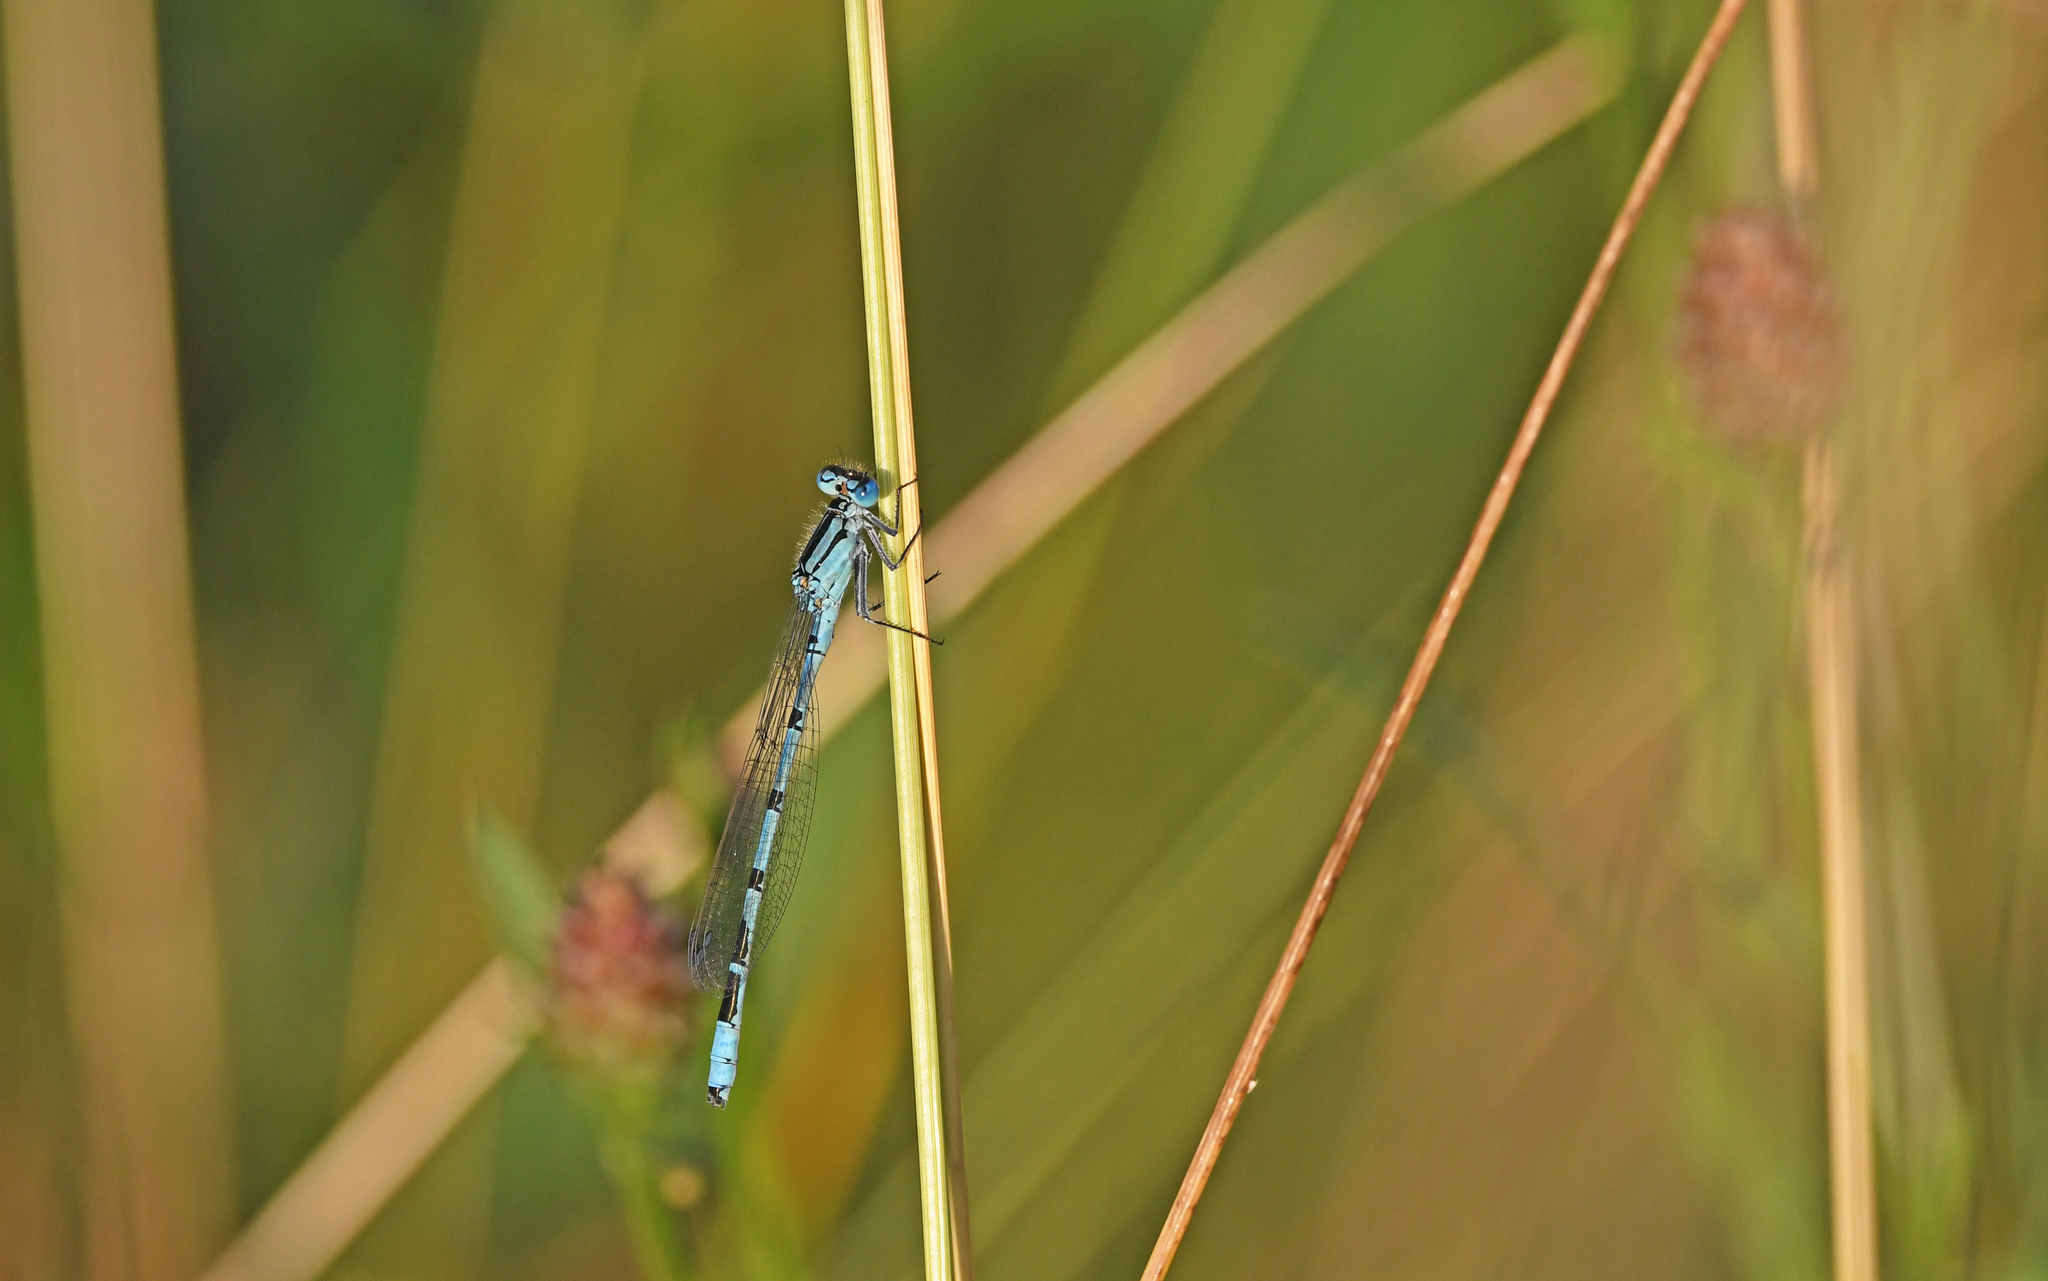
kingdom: Animalia
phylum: Arthropoda
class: Insecta
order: Odonata
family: Coenagrionidae
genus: Enallagma
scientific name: Enallagma cyathigerum
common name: Common blue damselfly
